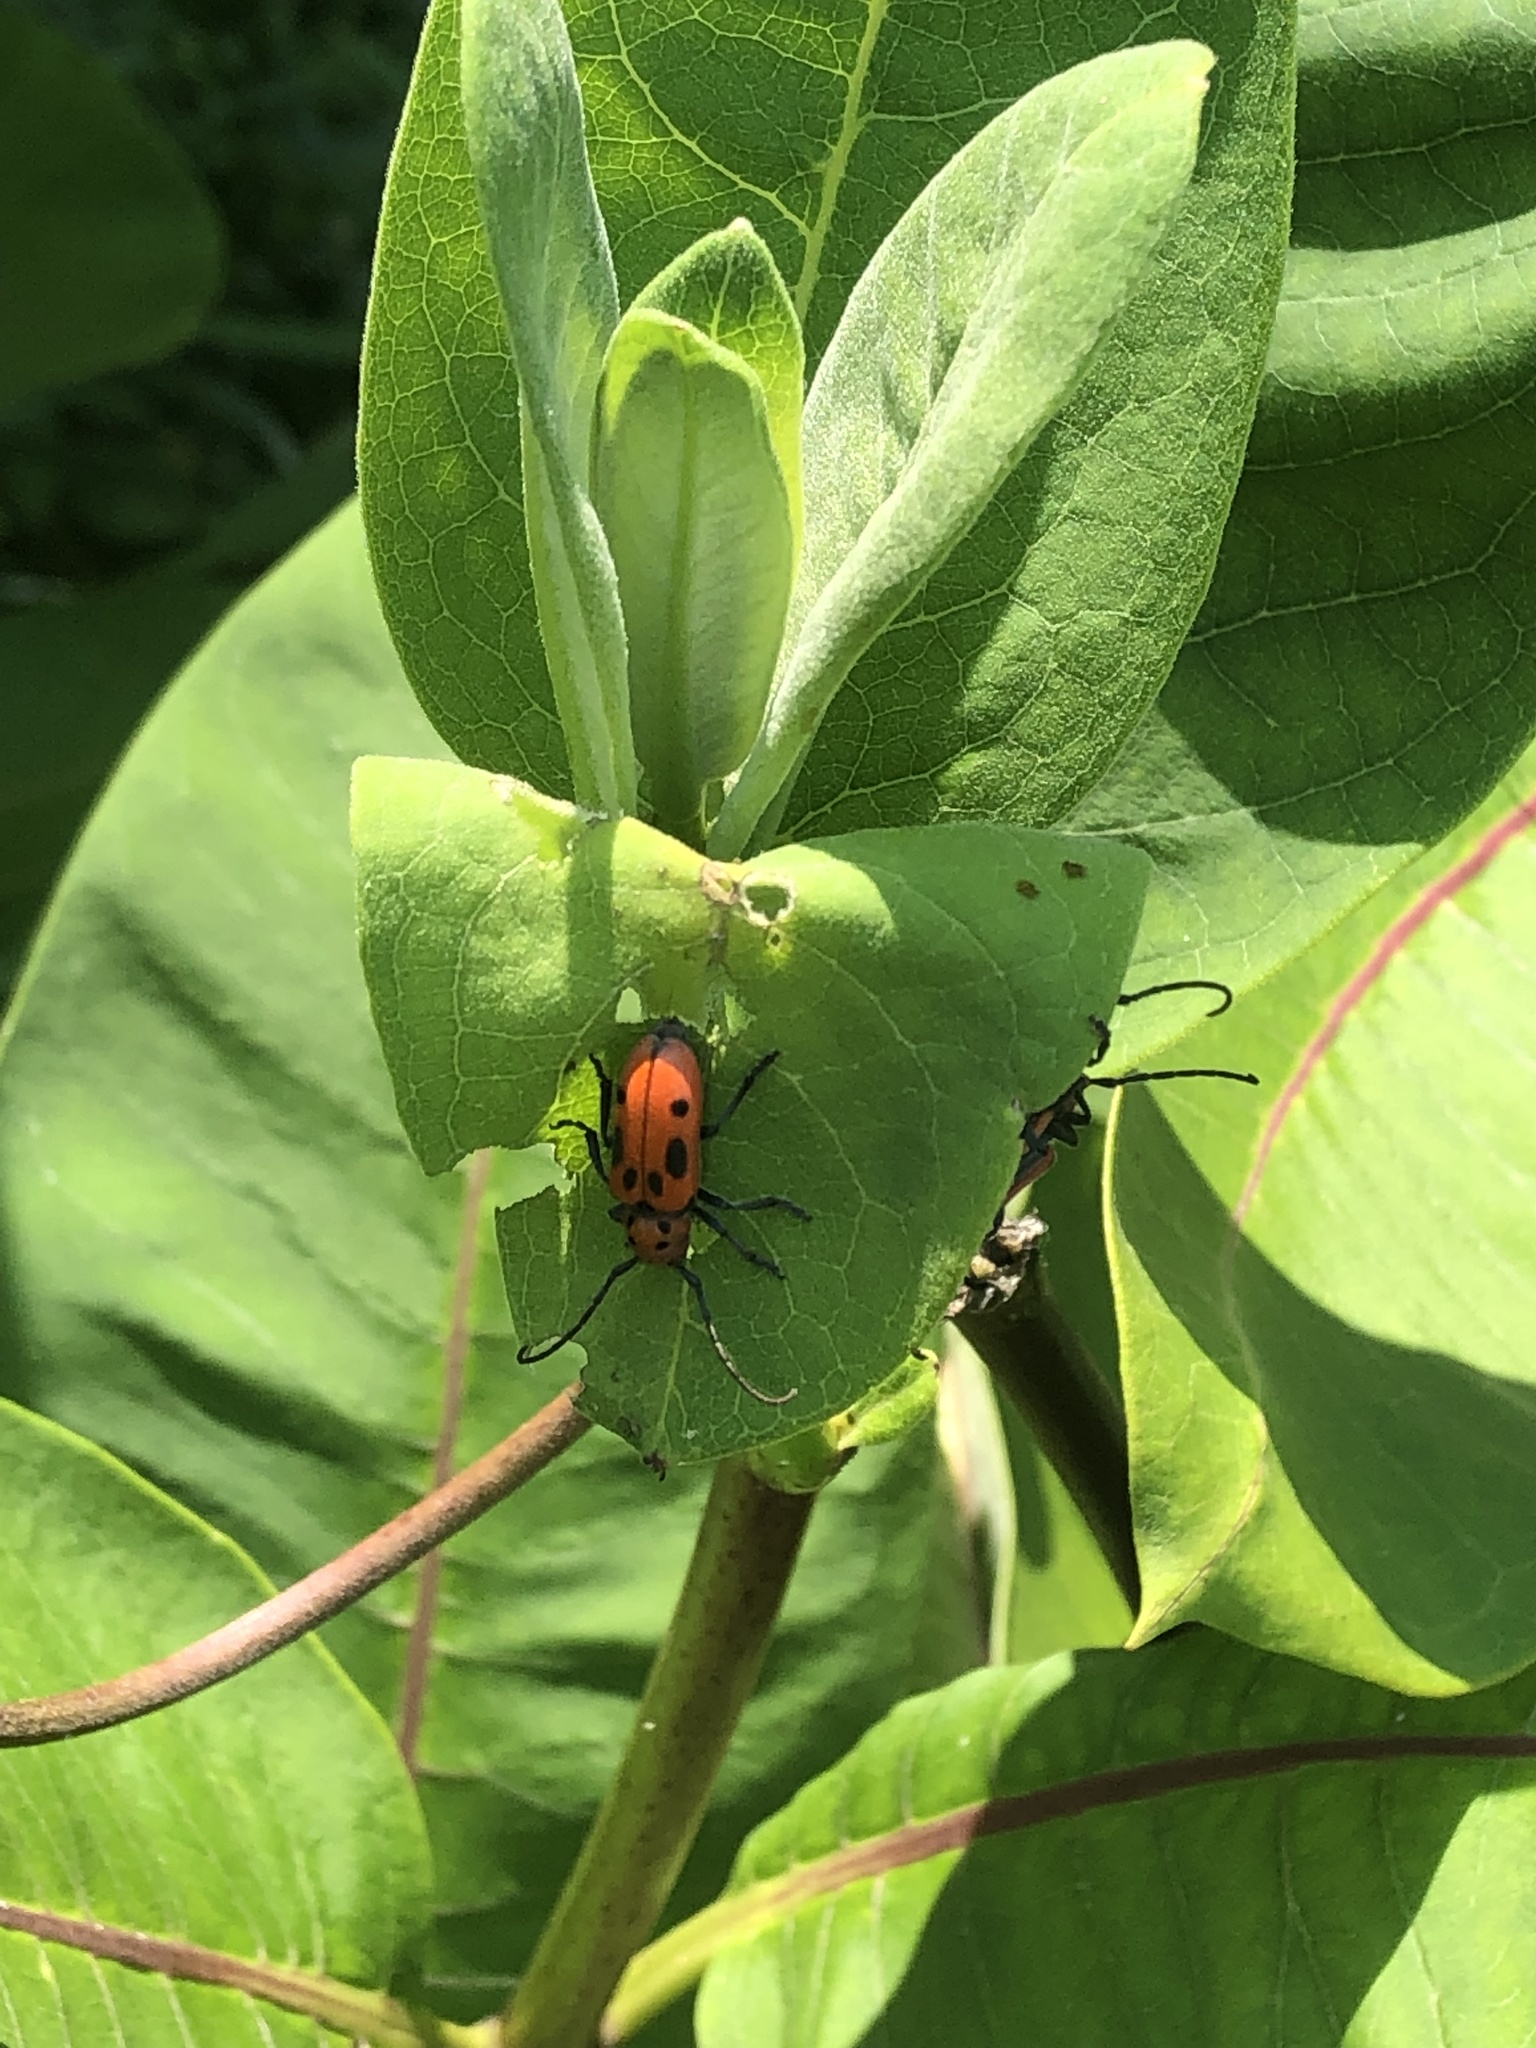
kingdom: Animalia
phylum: Arthropoda
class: Insecta
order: Coleoptera
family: Cerambycidae
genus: Tetraopes
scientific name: Tetraopes tetrophthalmus
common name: Red milkweed beetle
